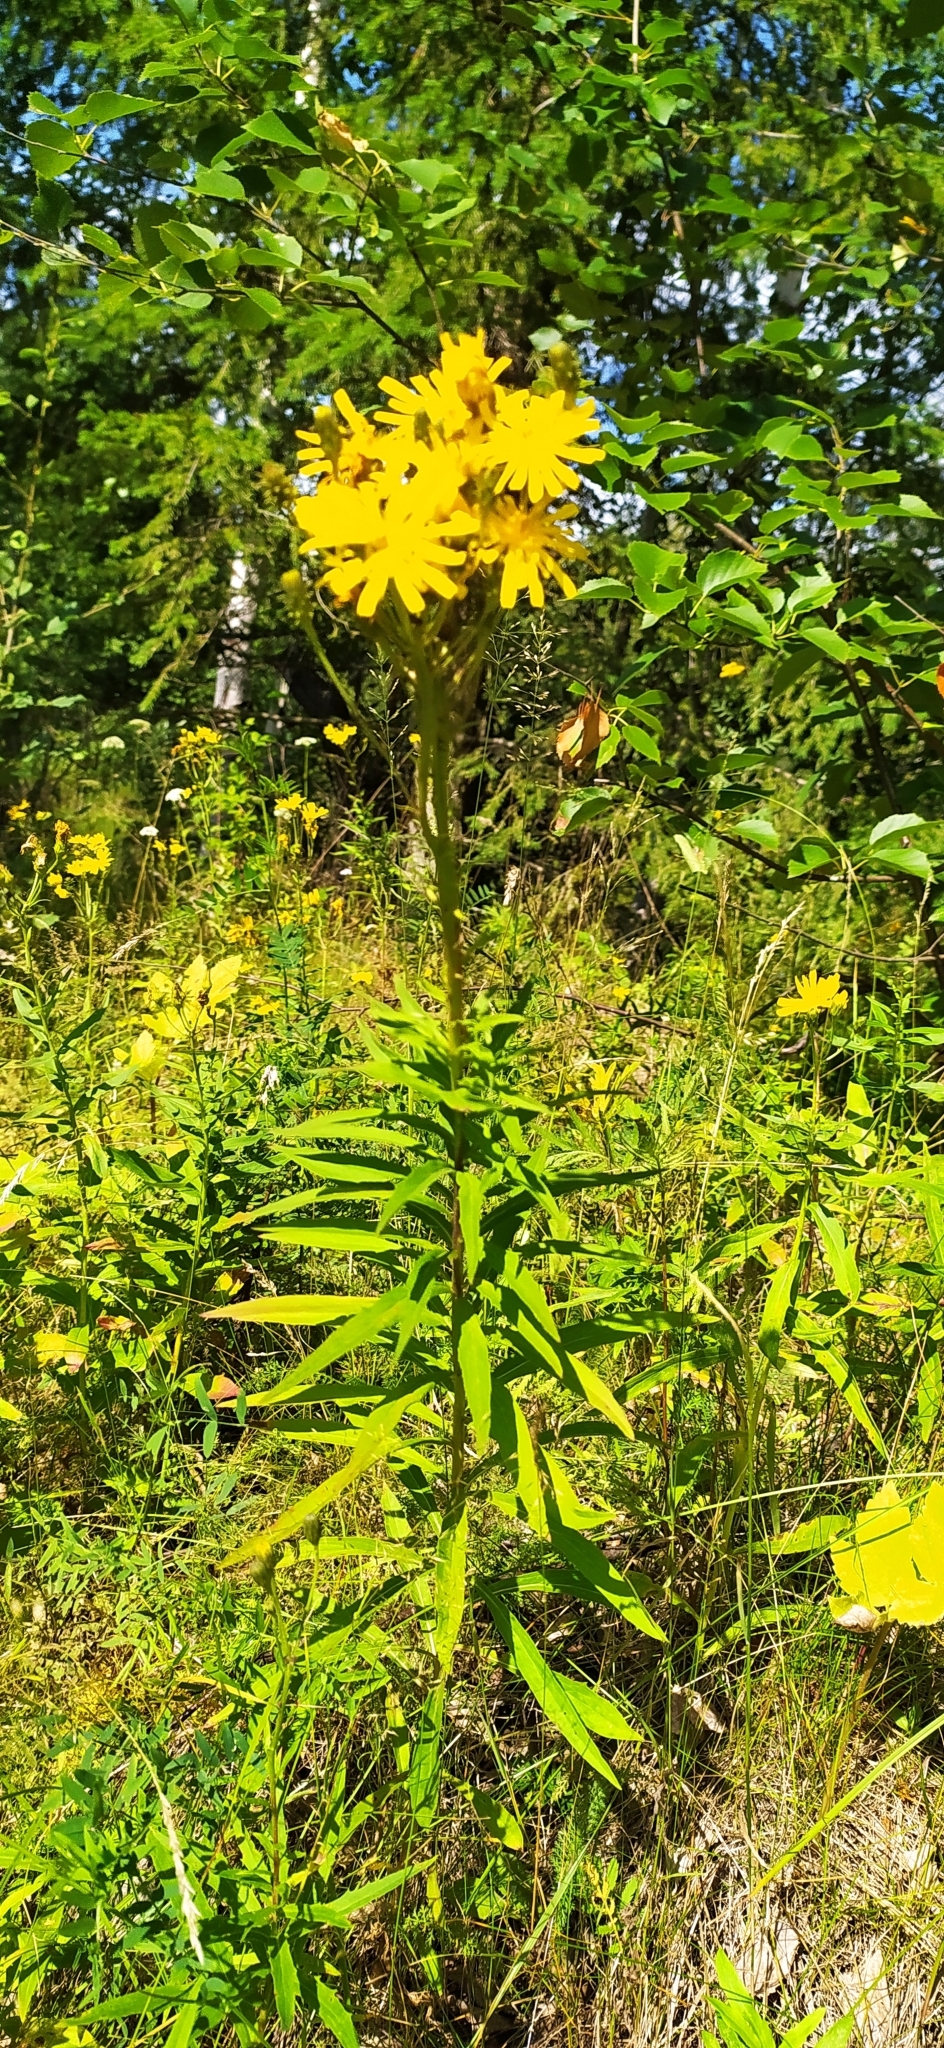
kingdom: Plantae
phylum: Tracheophyta
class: Magnoliopsida
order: Asterales
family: Asteraceae
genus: Hieracium
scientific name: Hieracium umbellatum
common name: Northern hawkweed
